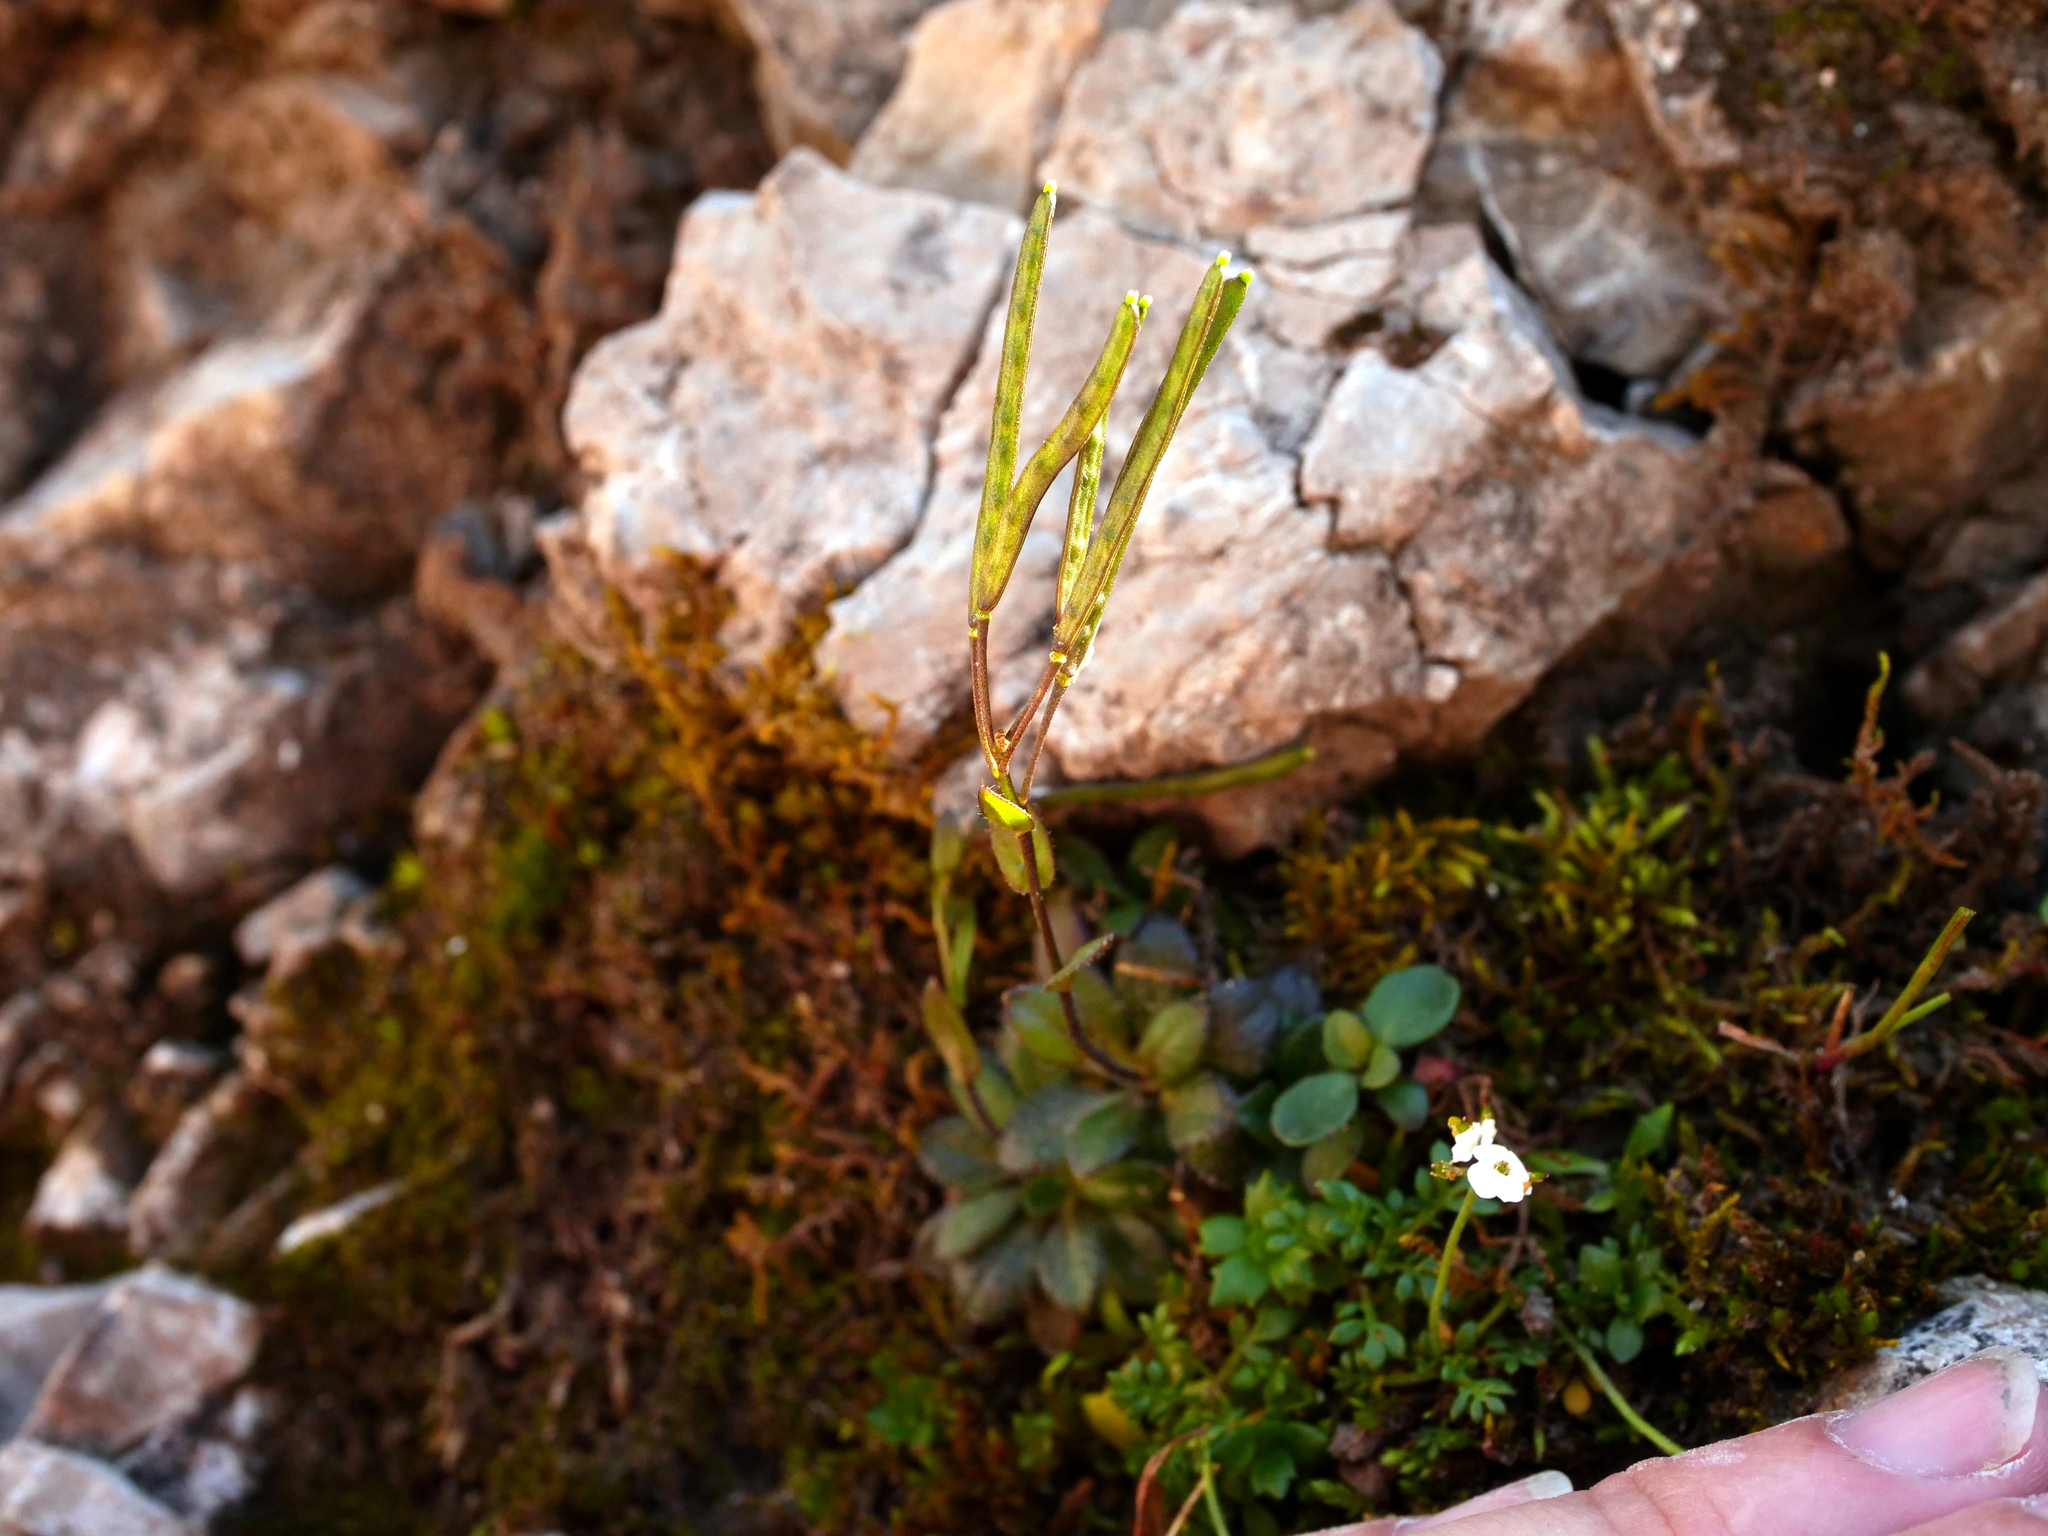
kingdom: Plantae
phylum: Tracheophyta
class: Magnoliopsida
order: Brassicales
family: Brassicaceae
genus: Arabis
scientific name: Arabis pumila
